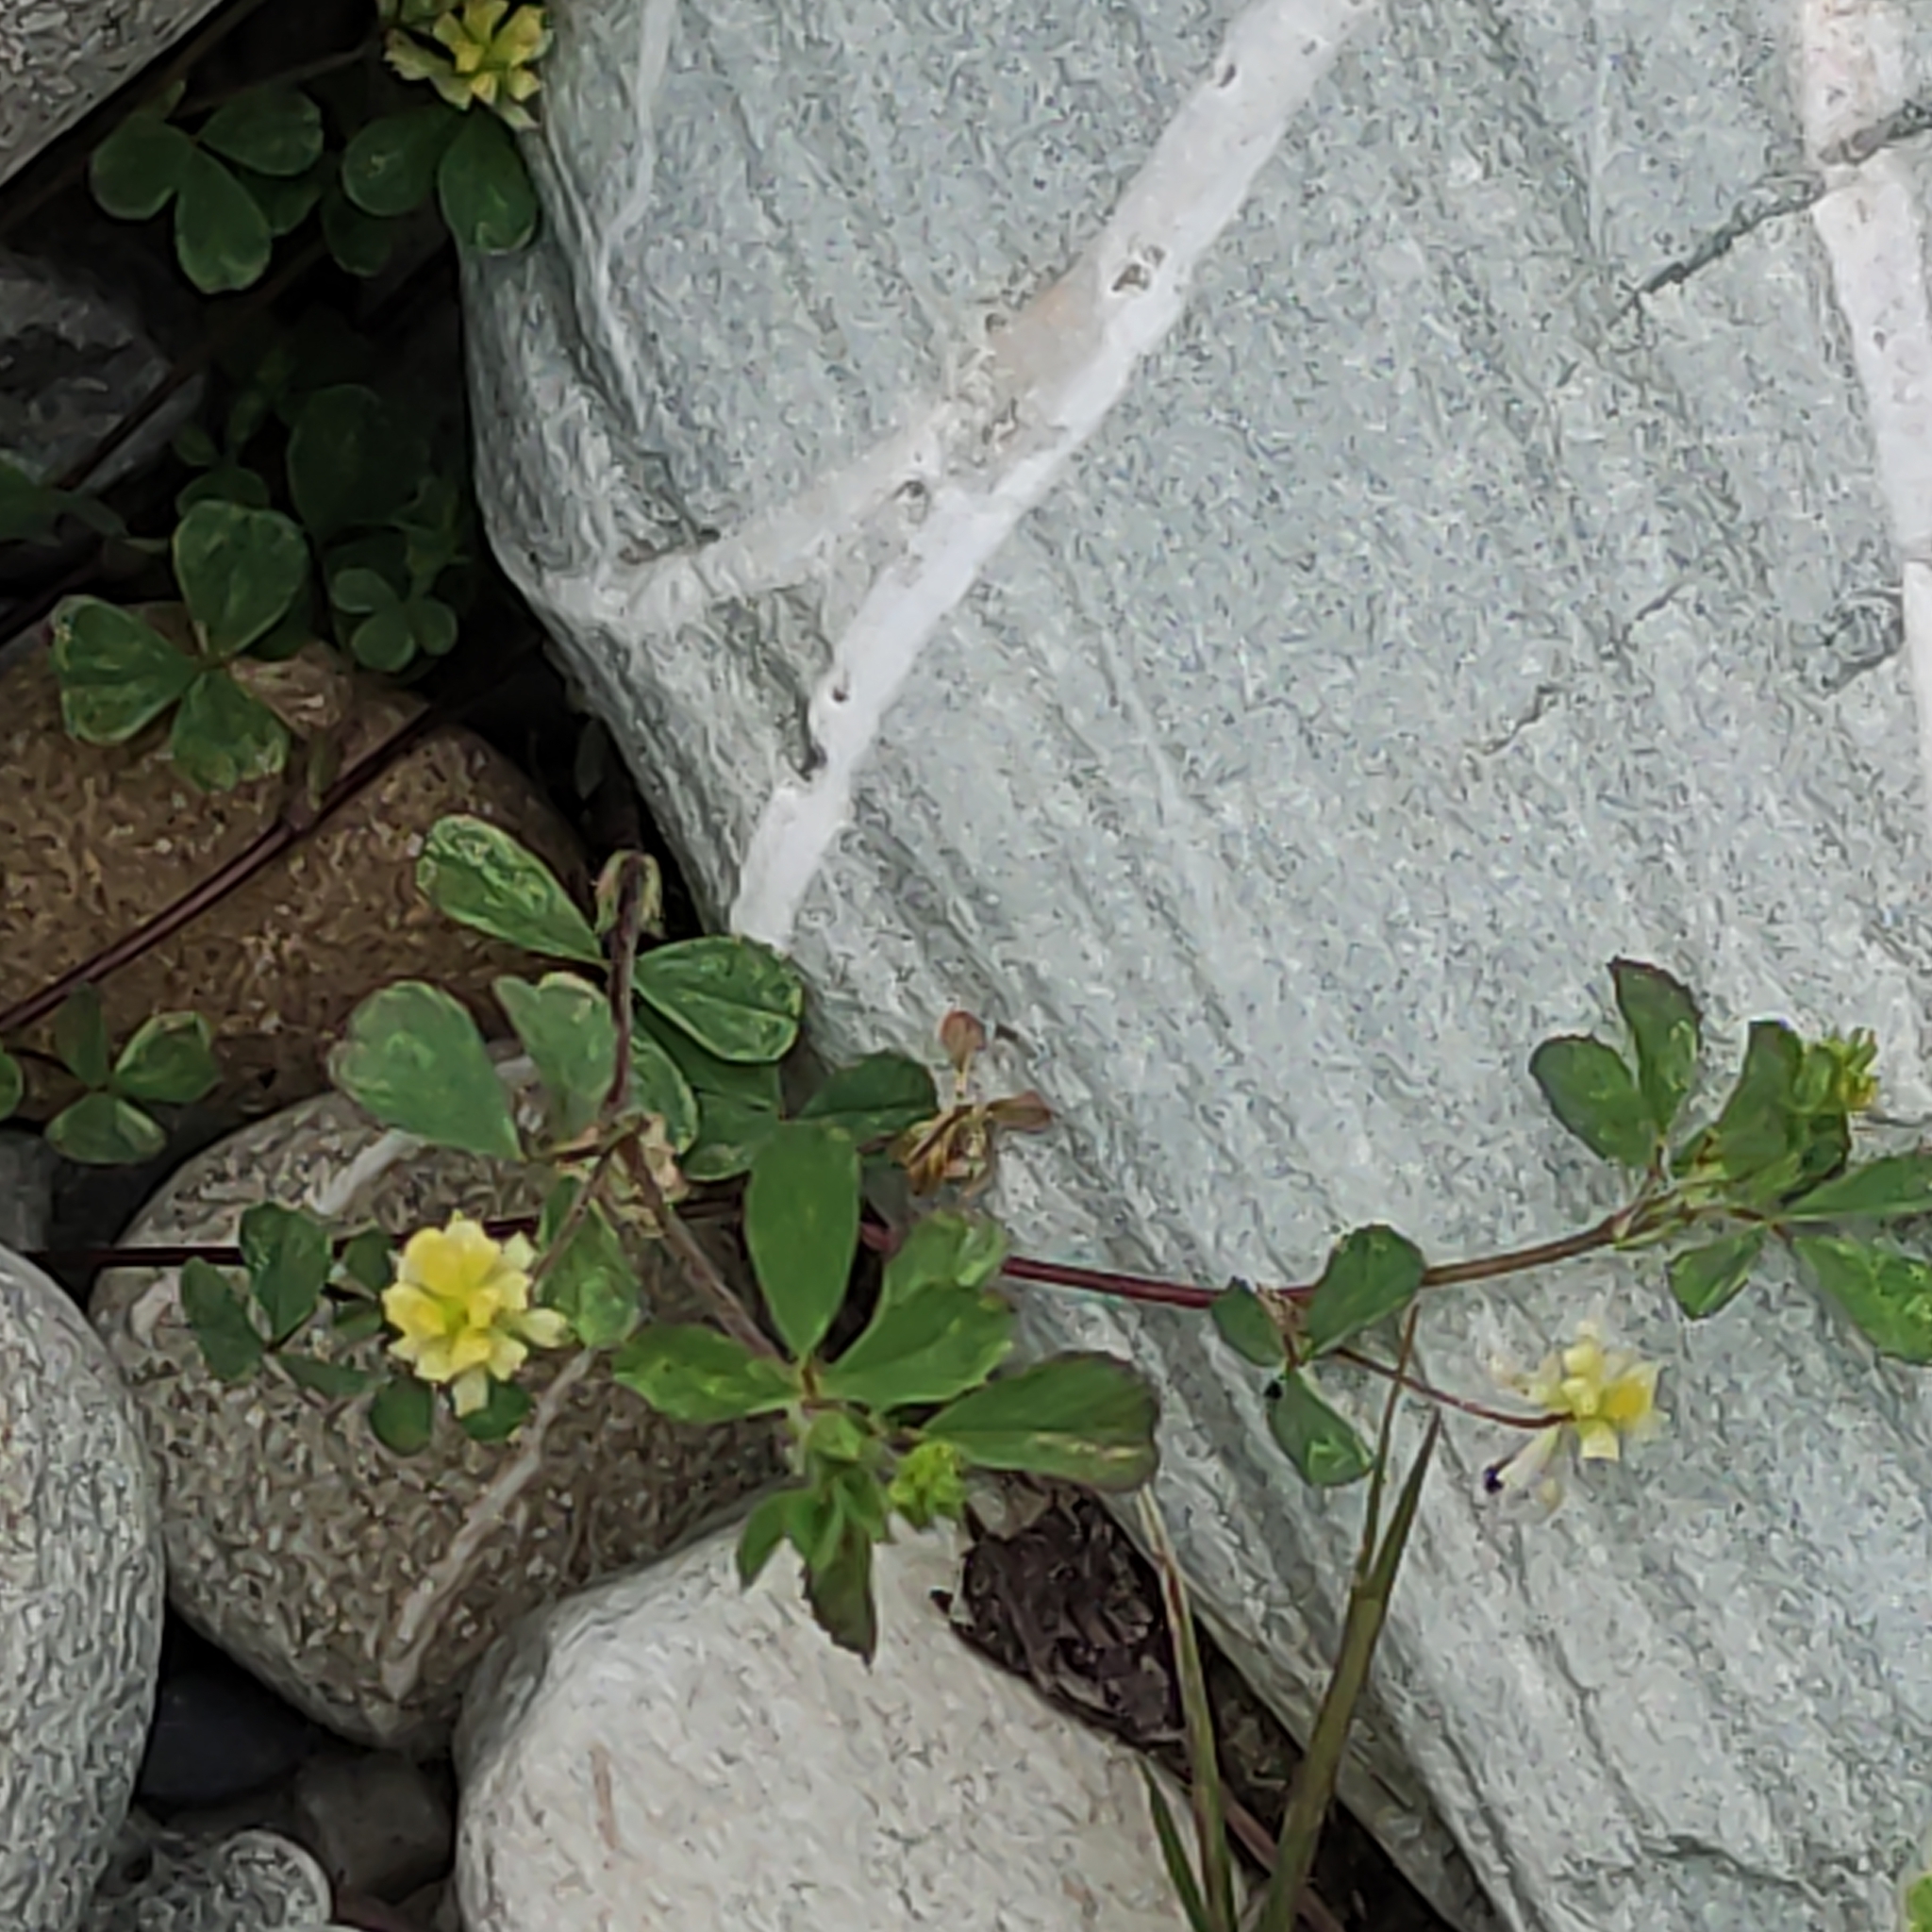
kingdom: Plantae
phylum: Tracheophyta
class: Magnoliopsida
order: Fabales
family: Fabaceae
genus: Trifolium
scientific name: Trifolium dubium
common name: Suckling clover
